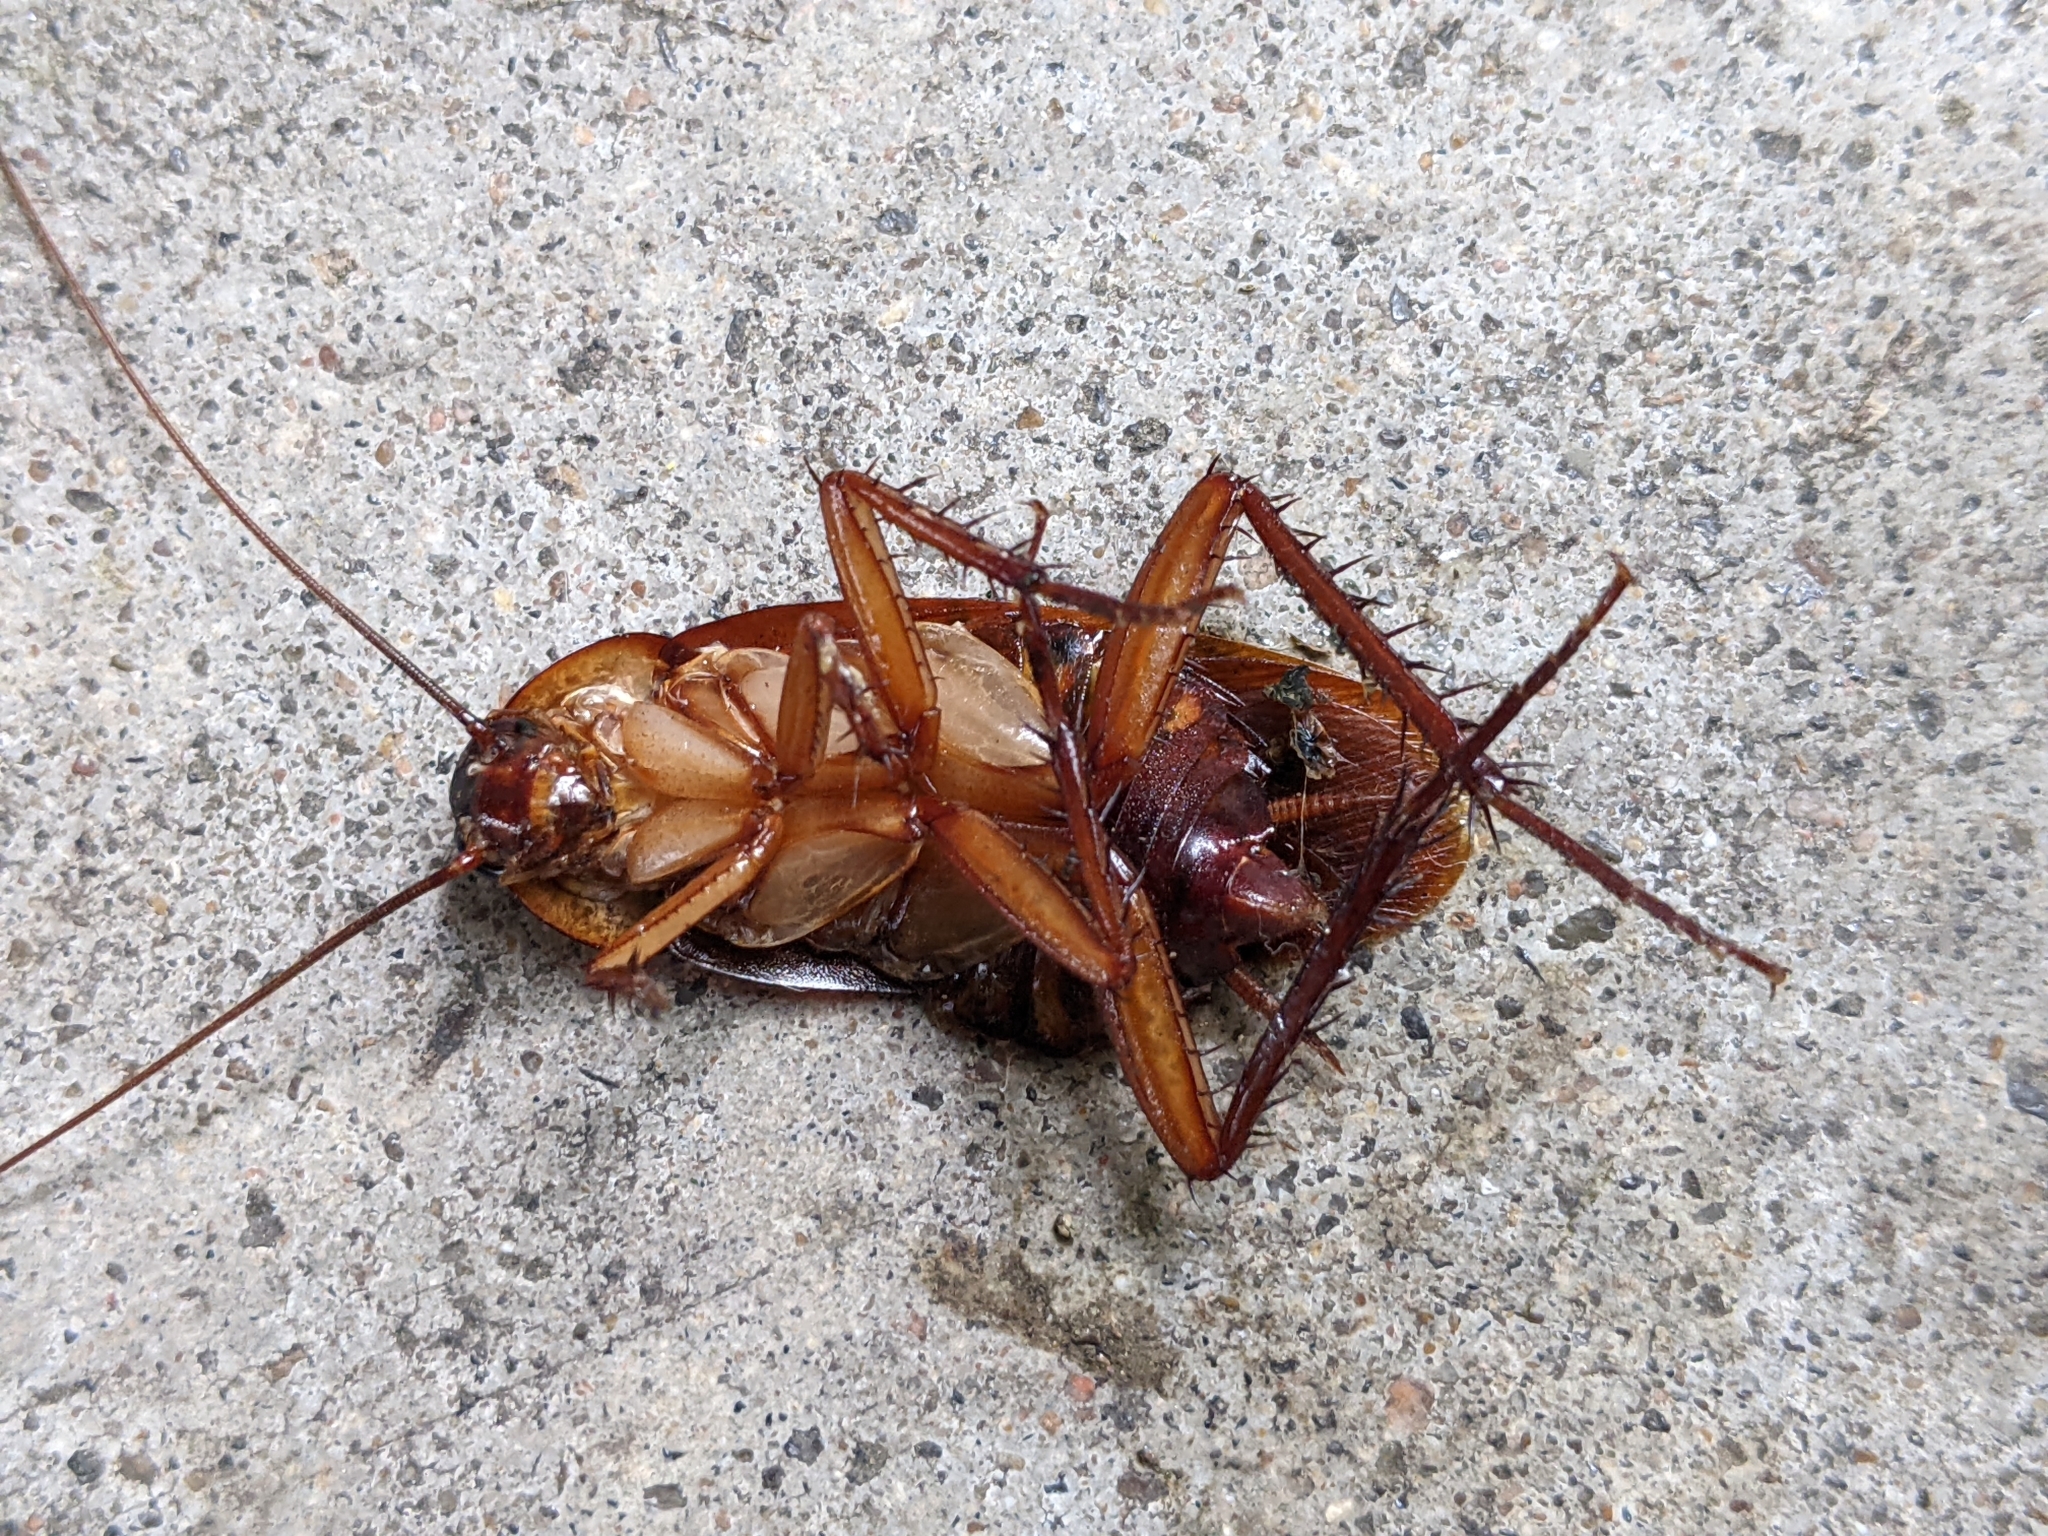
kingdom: Animalia
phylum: Arthropoda
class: Insecta
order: Blattodea
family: Blattidae
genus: Periplaneta
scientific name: Periplaneta americana
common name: American cockroach
